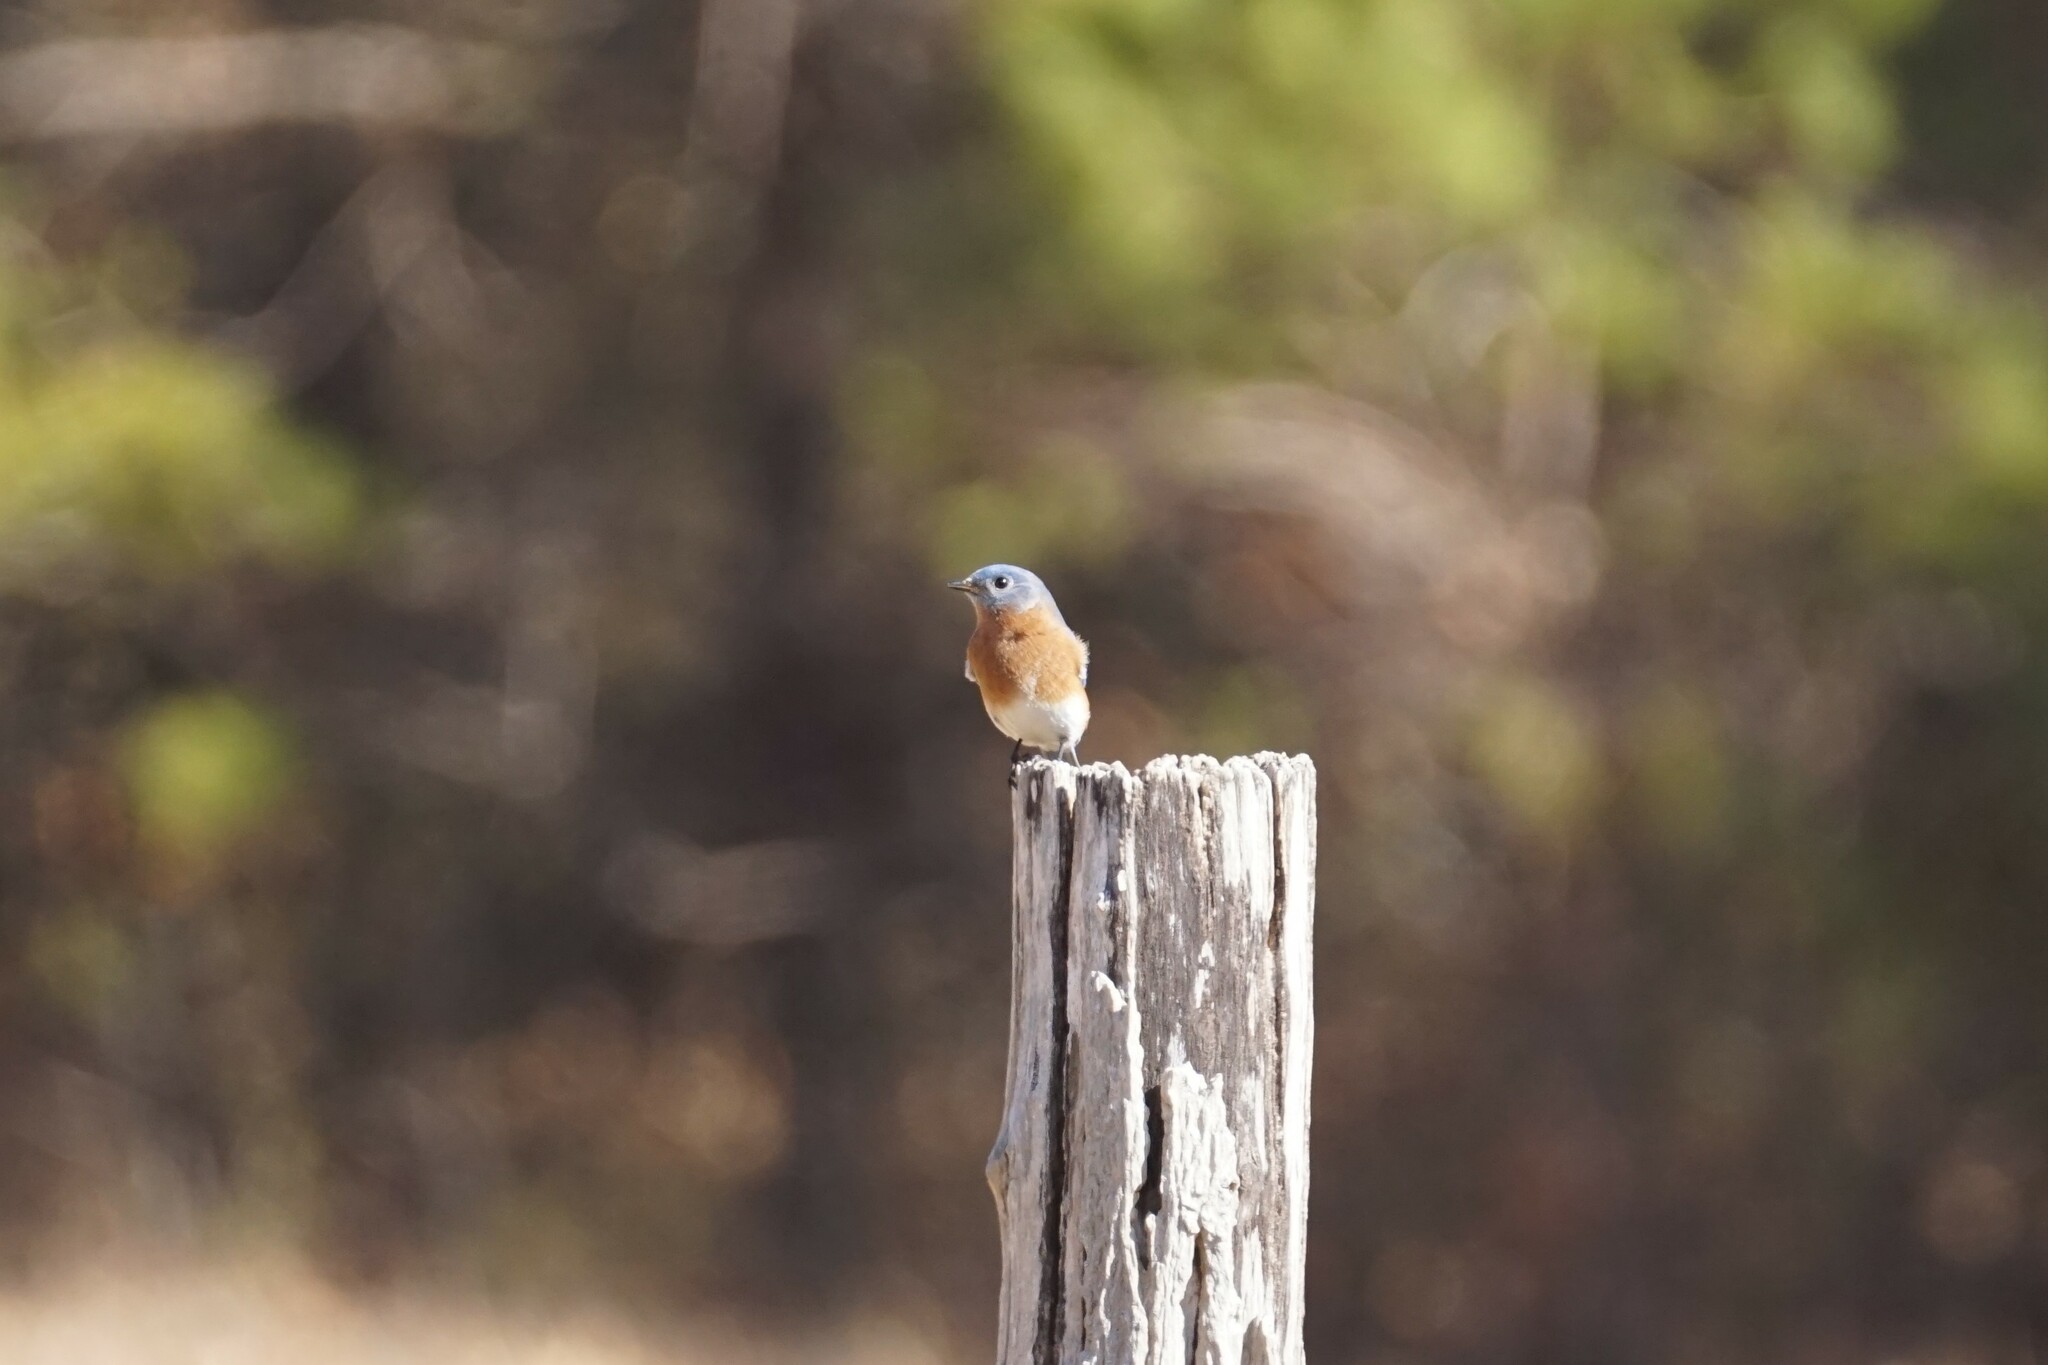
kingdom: Animalia
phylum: Chordata
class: Aves
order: Passeriformes
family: Turdidae
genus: Sialia
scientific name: Sialia sialis
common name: Eastern bluebird
